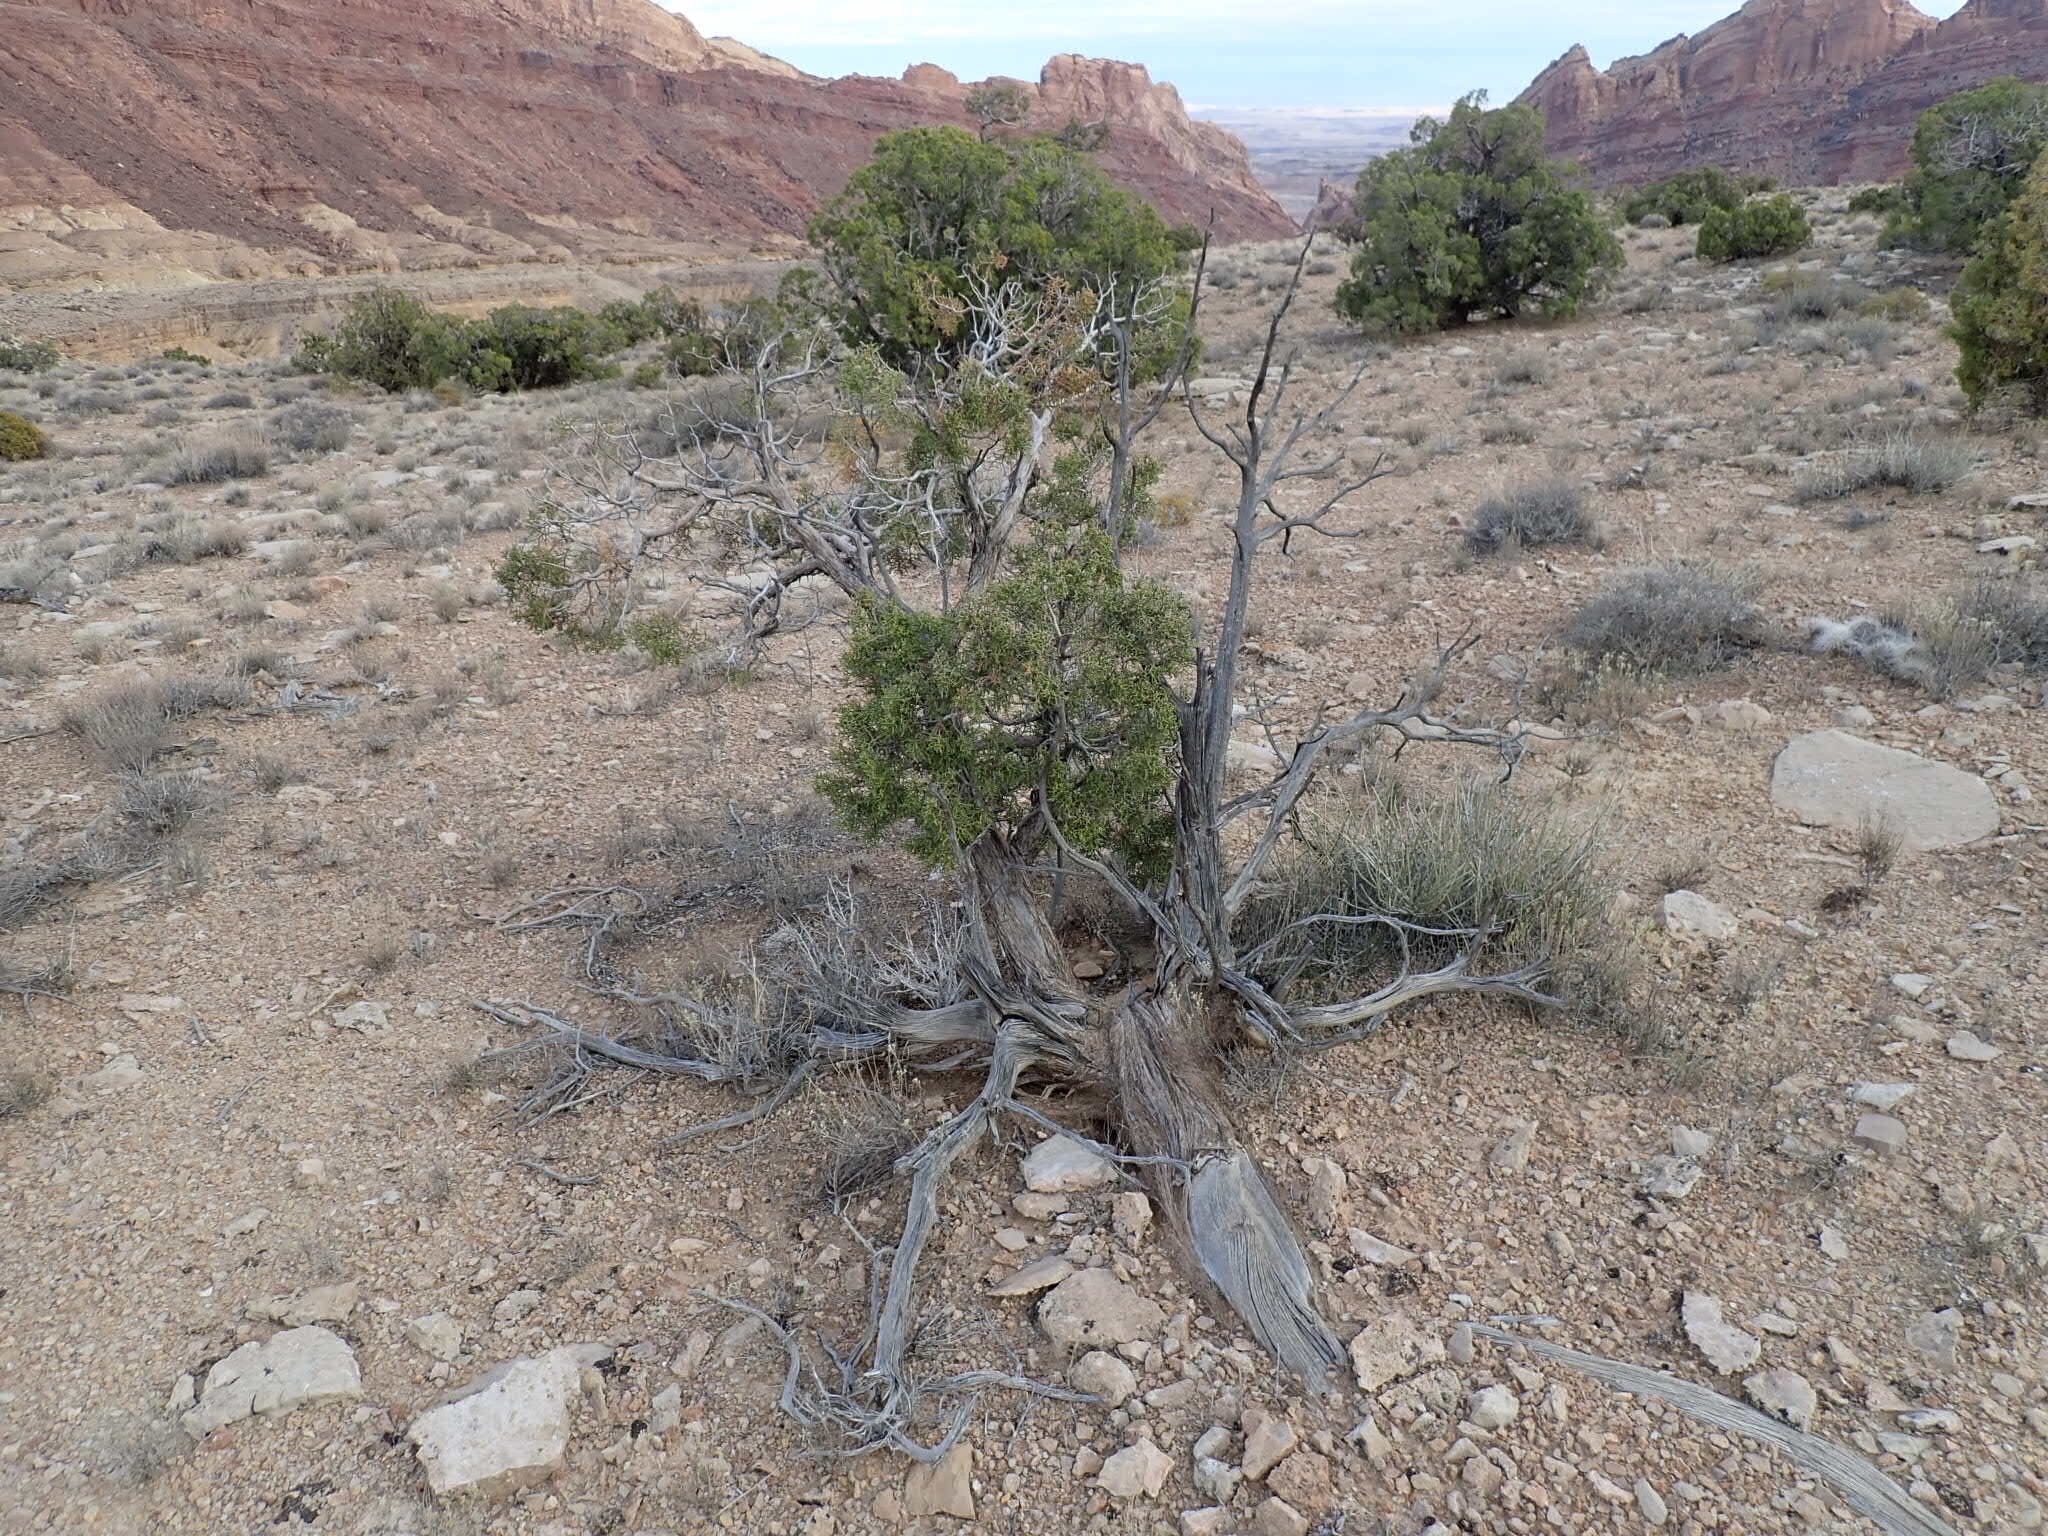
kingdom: Plantae
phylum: Tracheophyta
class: Pinopsida
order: Pinales
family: Cupressaceae
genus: Juniperus
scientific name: Juniperus osteosperma
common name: Utah juniper
